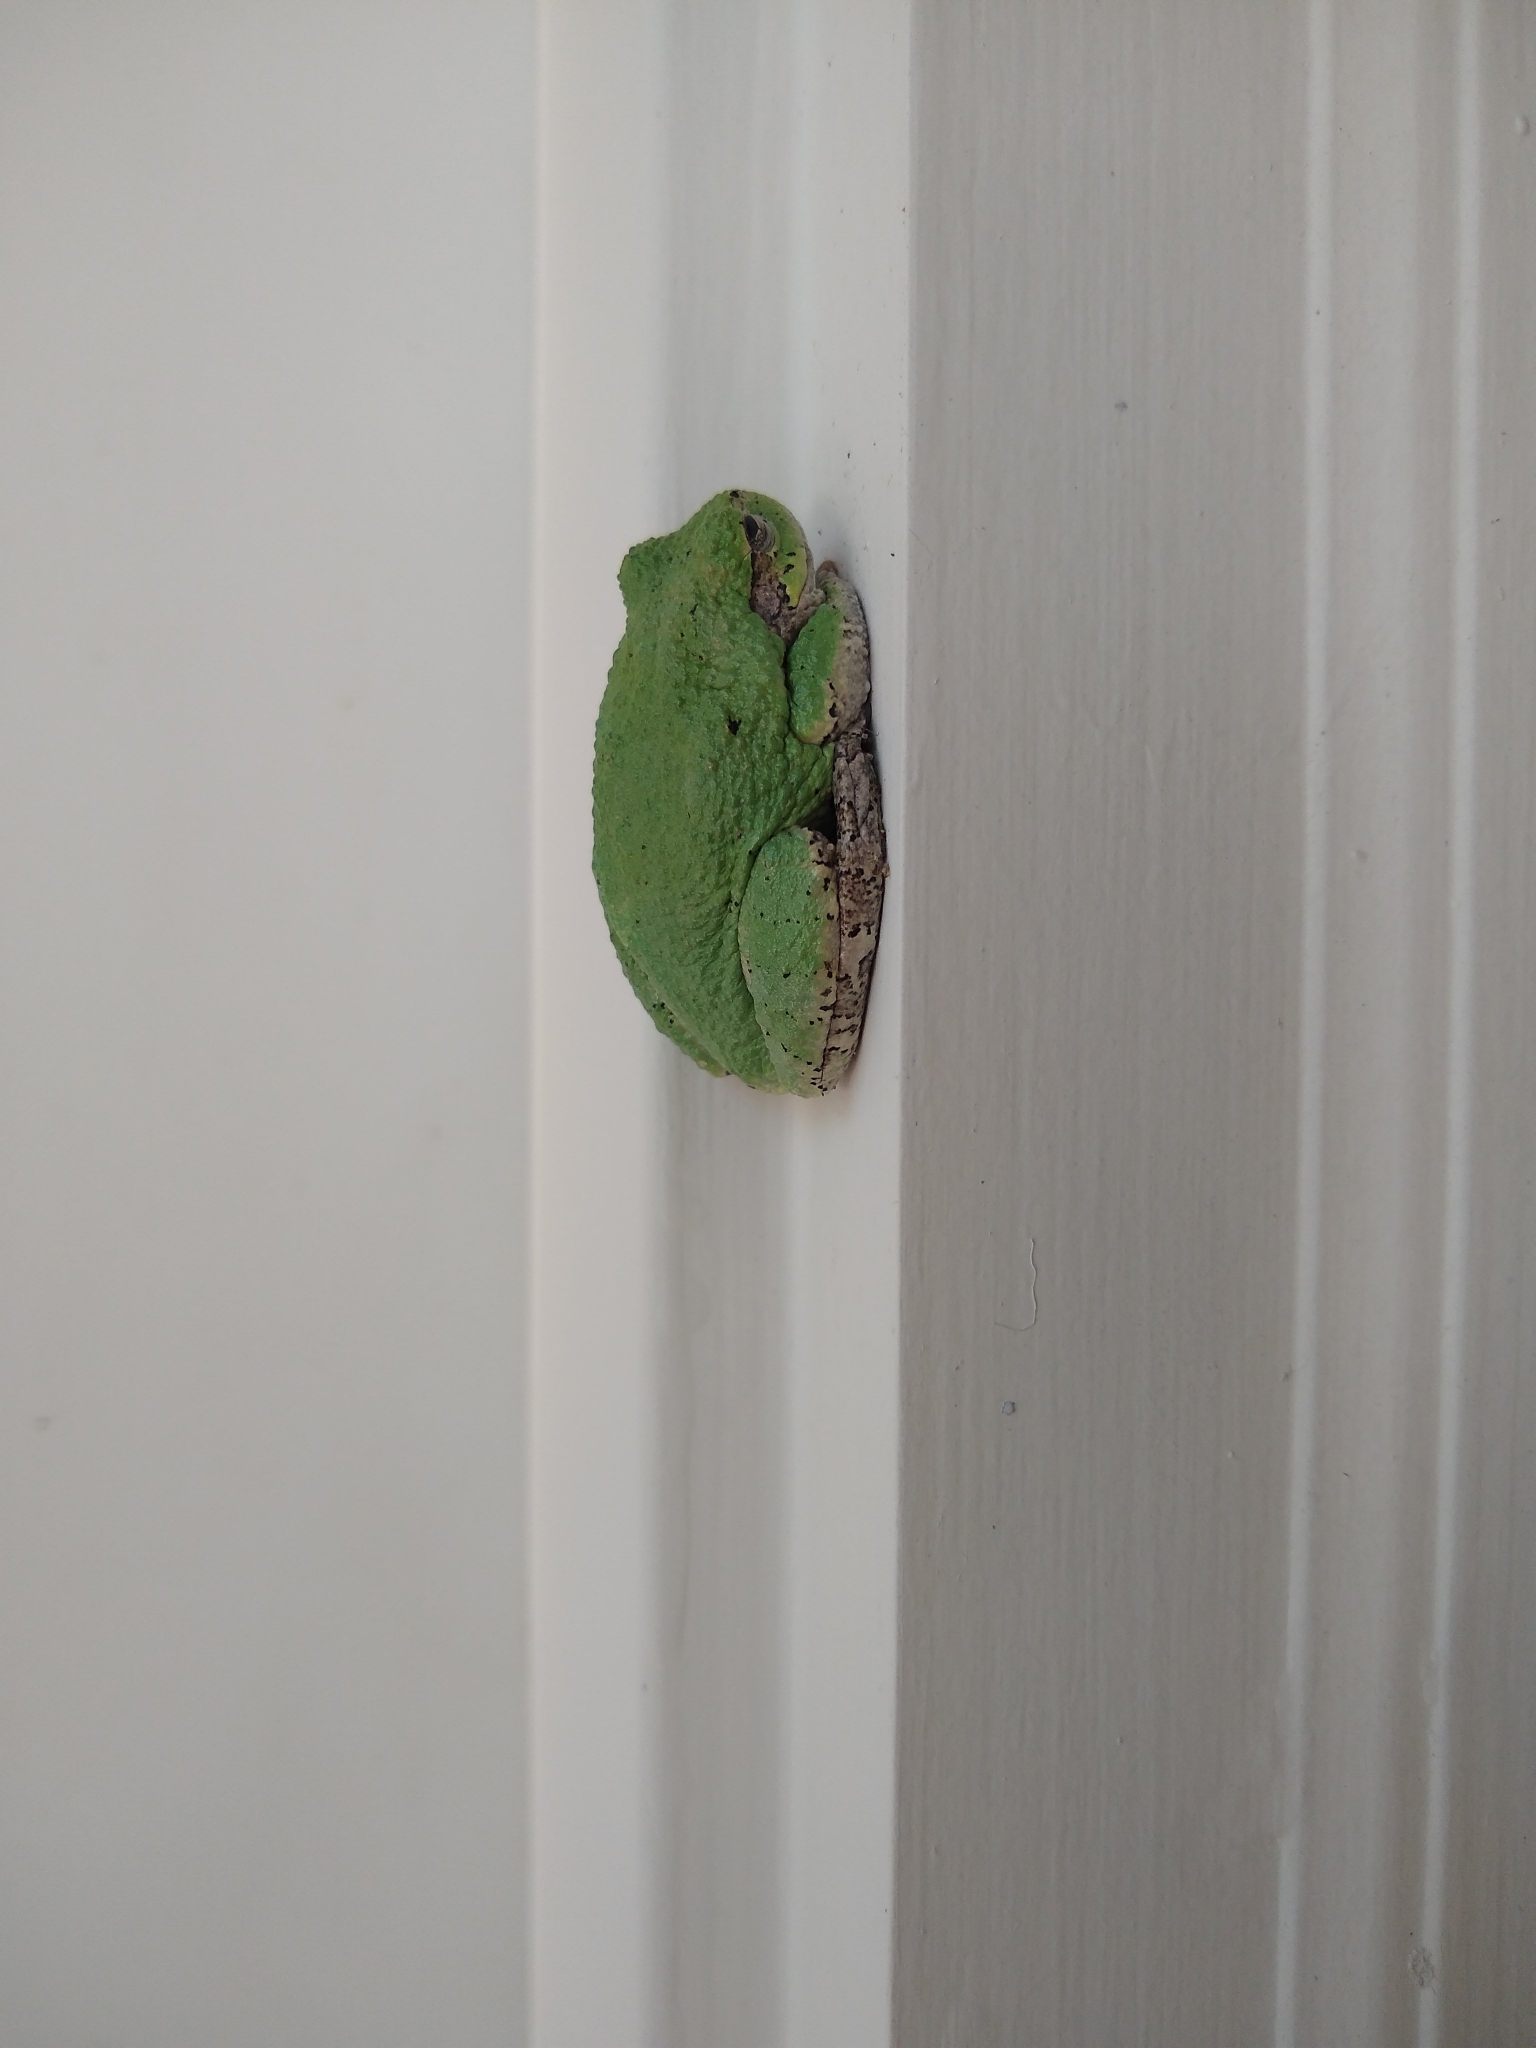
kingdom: Animalia
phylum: Chordata
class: Amphibia
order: Anura
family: Hylidae
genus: Hyla
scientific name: Hyla
